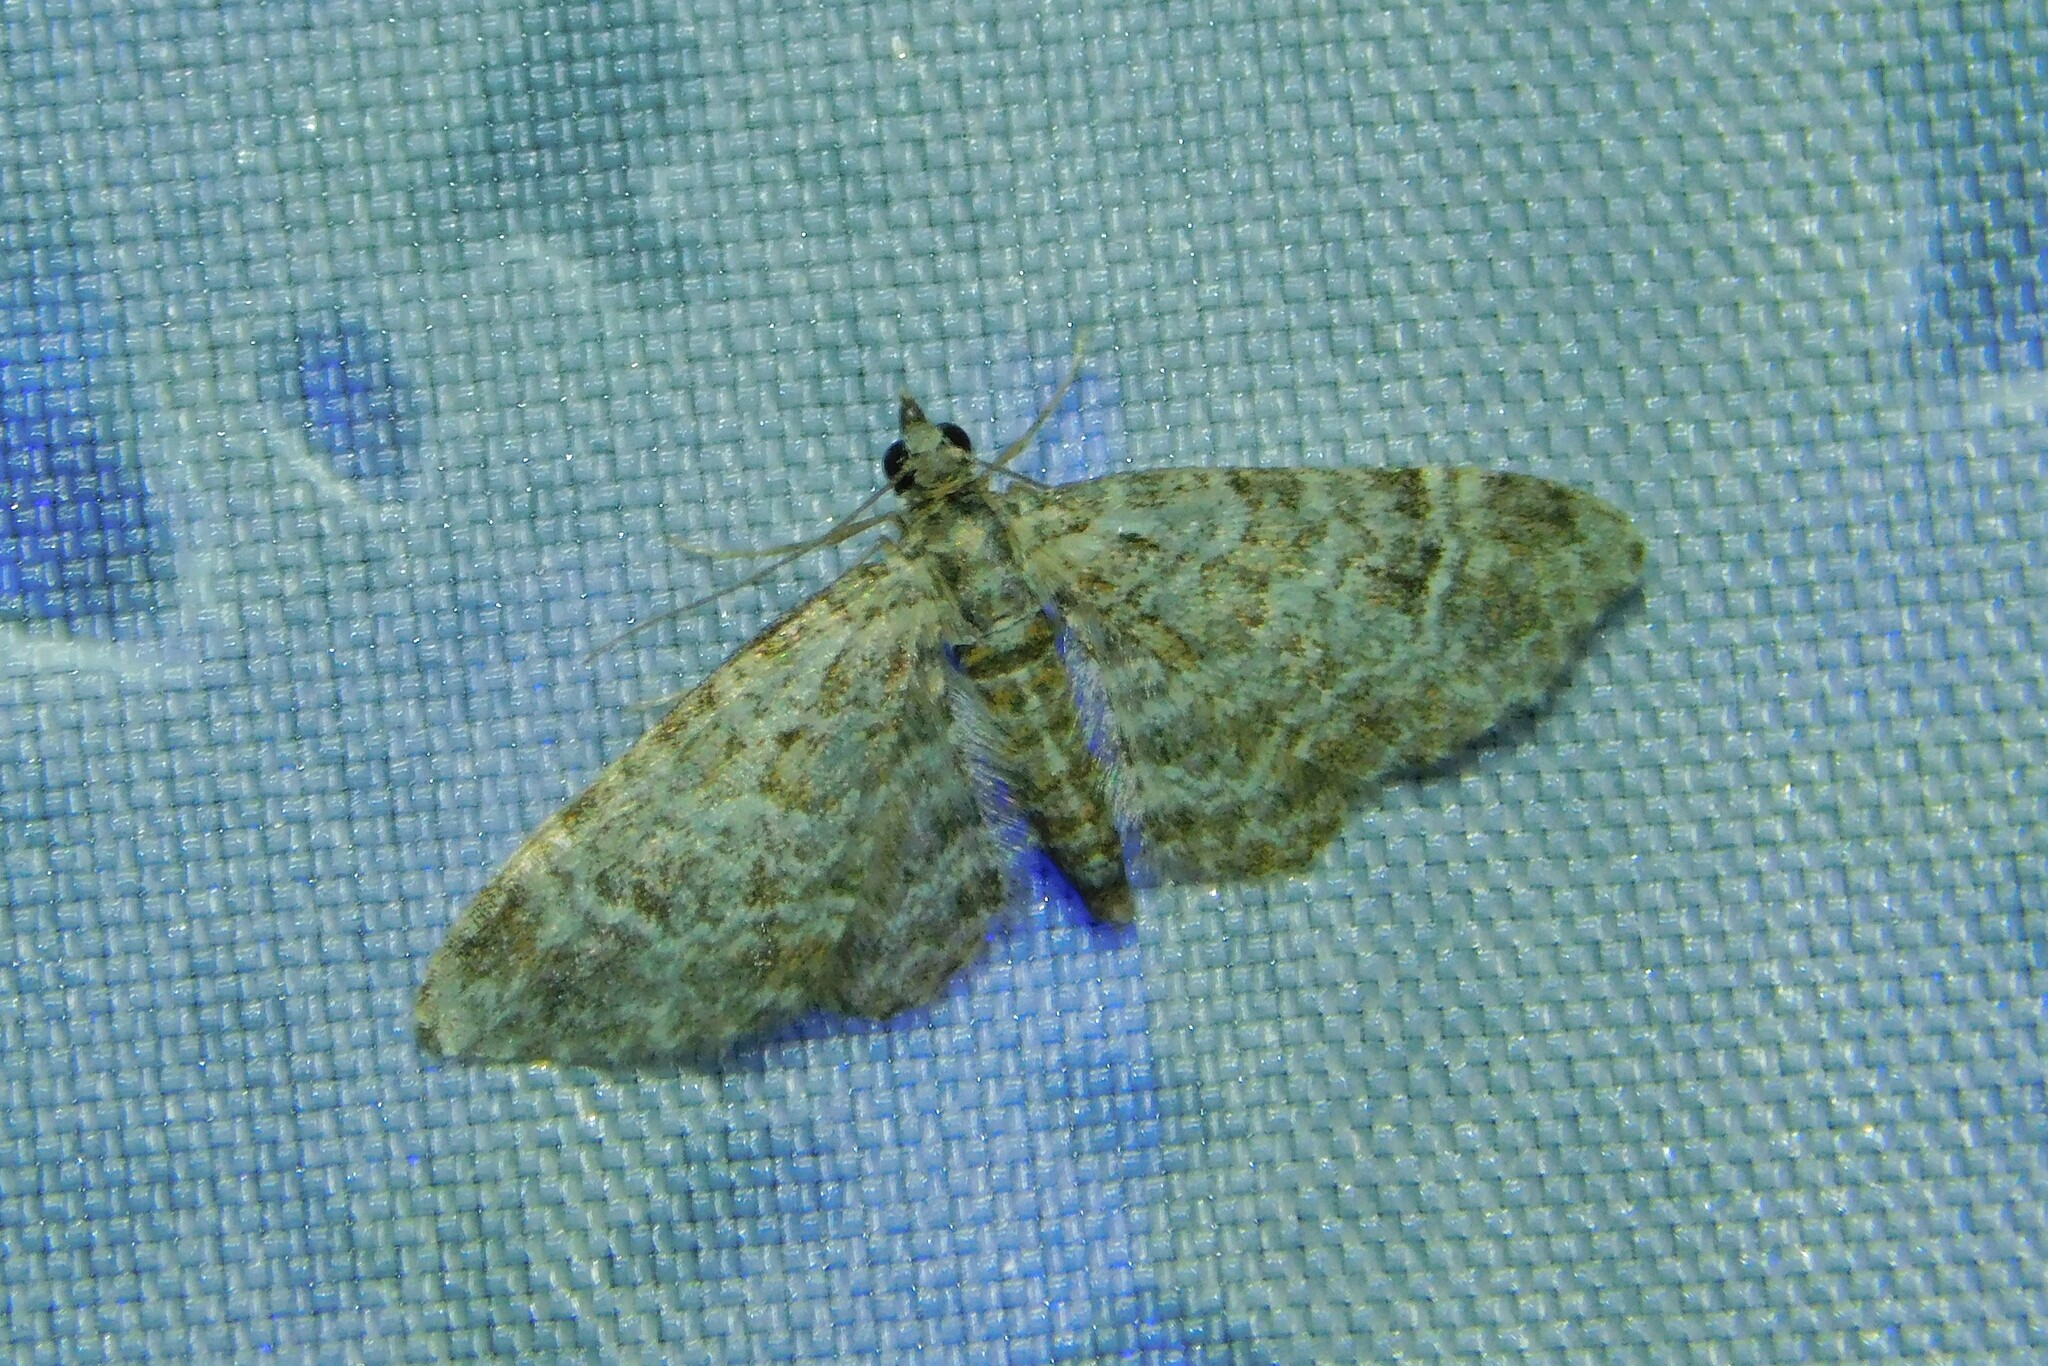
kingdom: Animalia
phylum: Arthropoda
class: Insecta
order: Lepidoptera
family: Geometridae
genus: Gymnoscelis
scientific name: Gymnoscelis rufifasciata
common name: Double-striped pug
